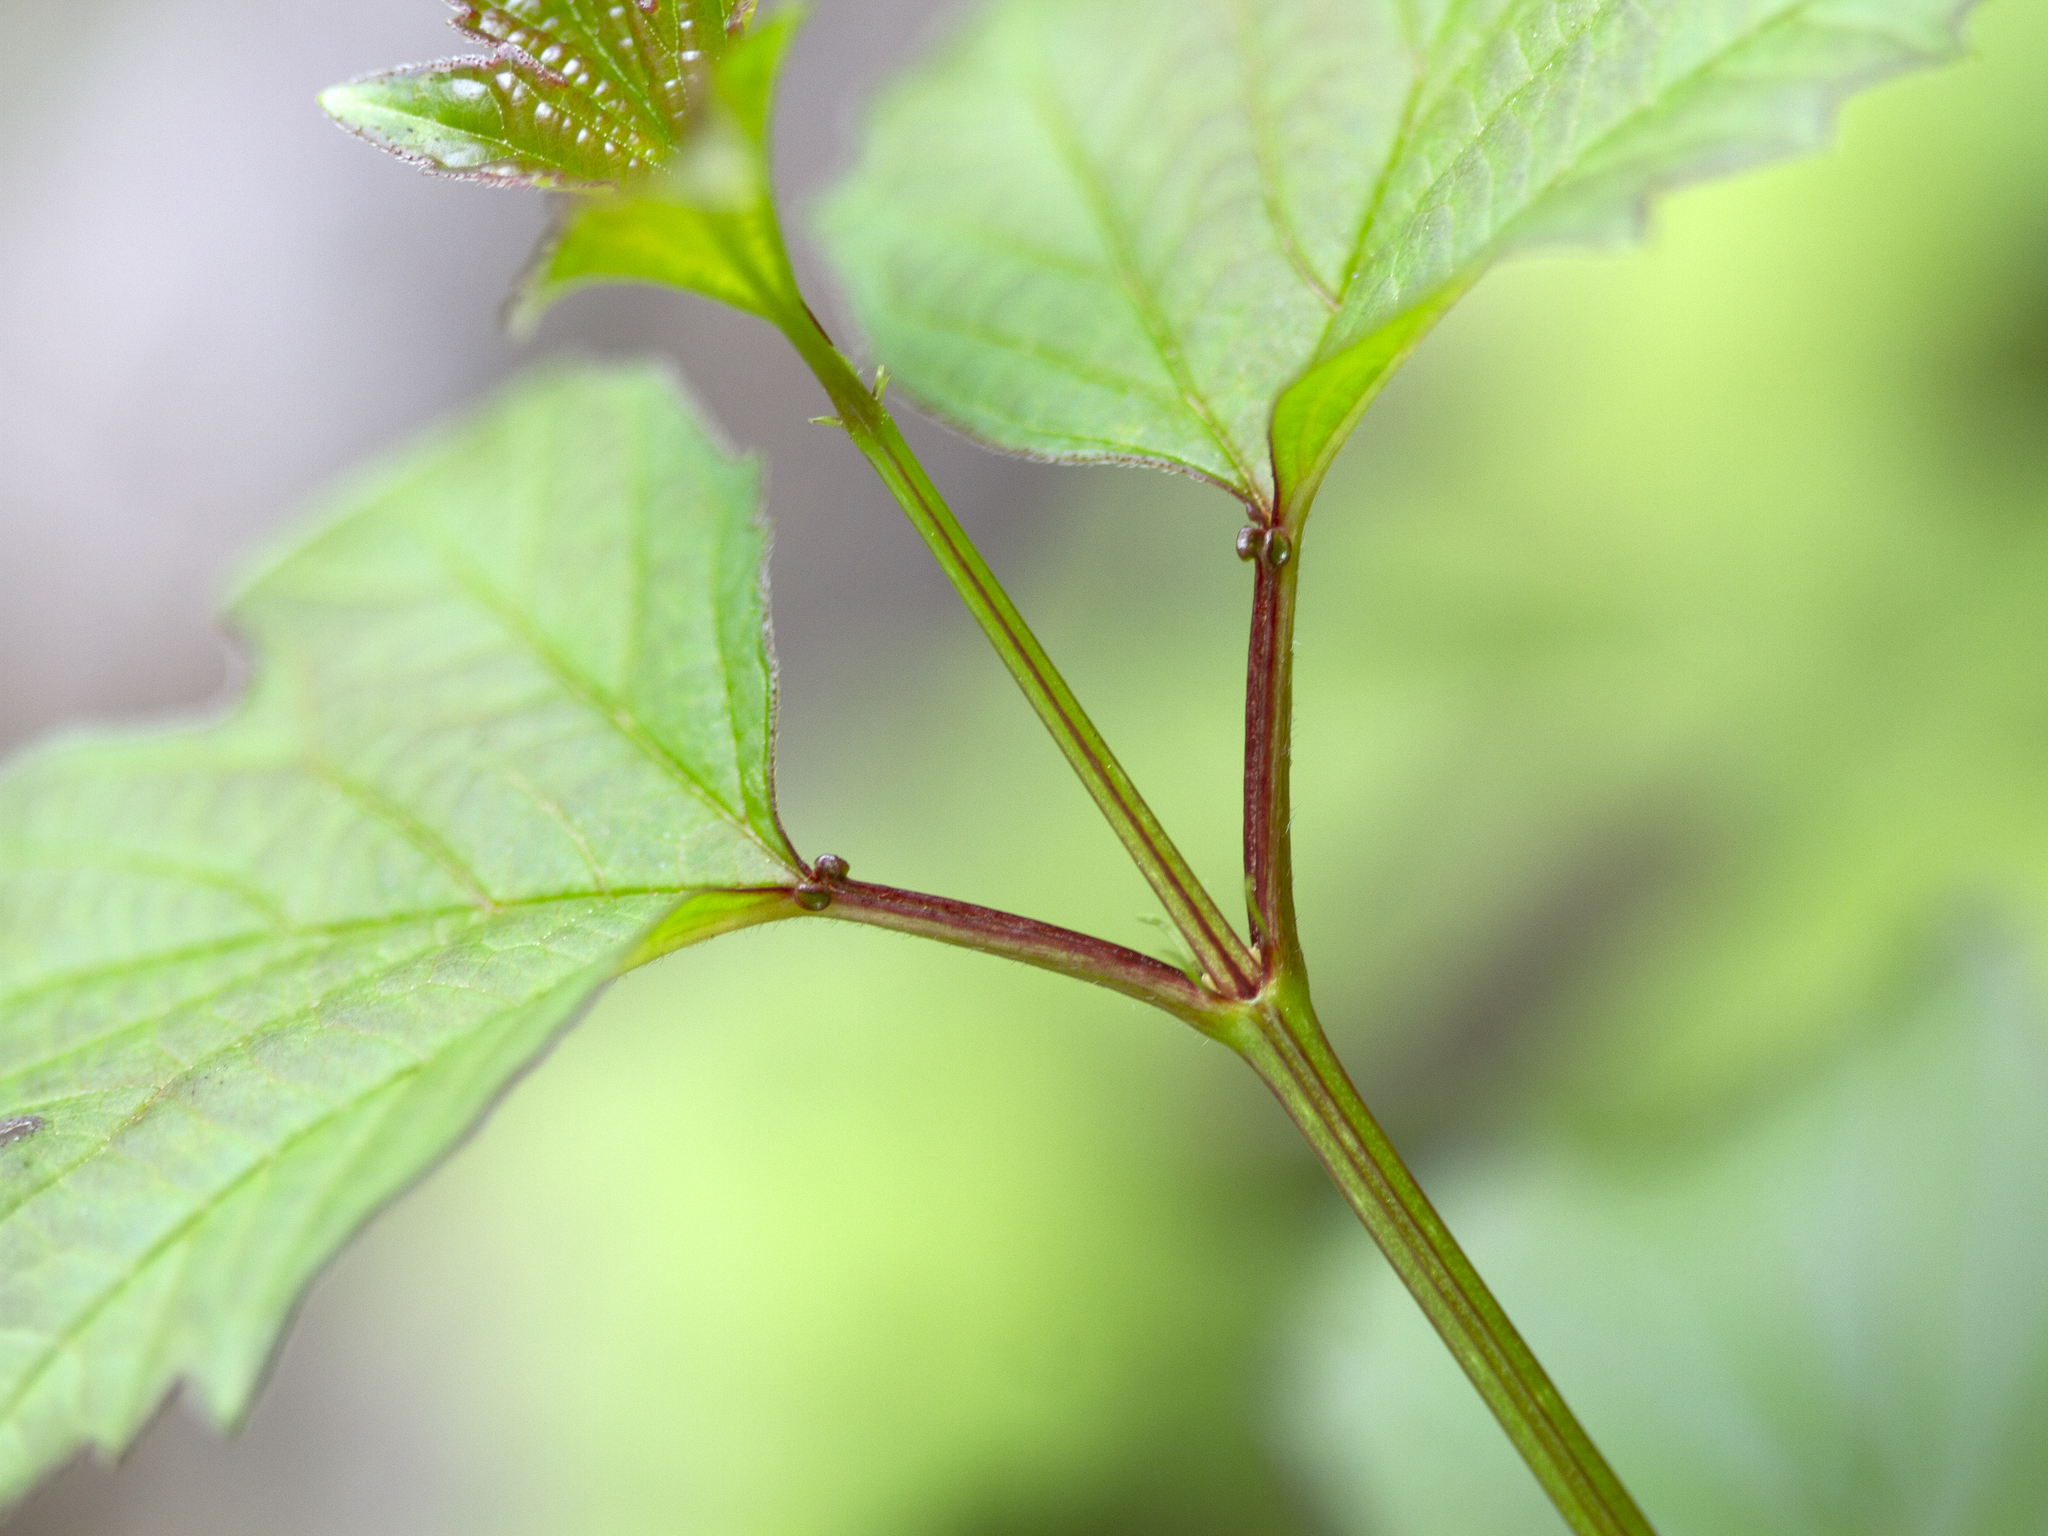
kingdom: Plantae
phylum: Tracheophyta
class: Magnoliopsida
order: Dipsacales
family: Viburnaceae
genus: Viburnum
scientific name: Viburnum opulus
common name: Guelder-rose
